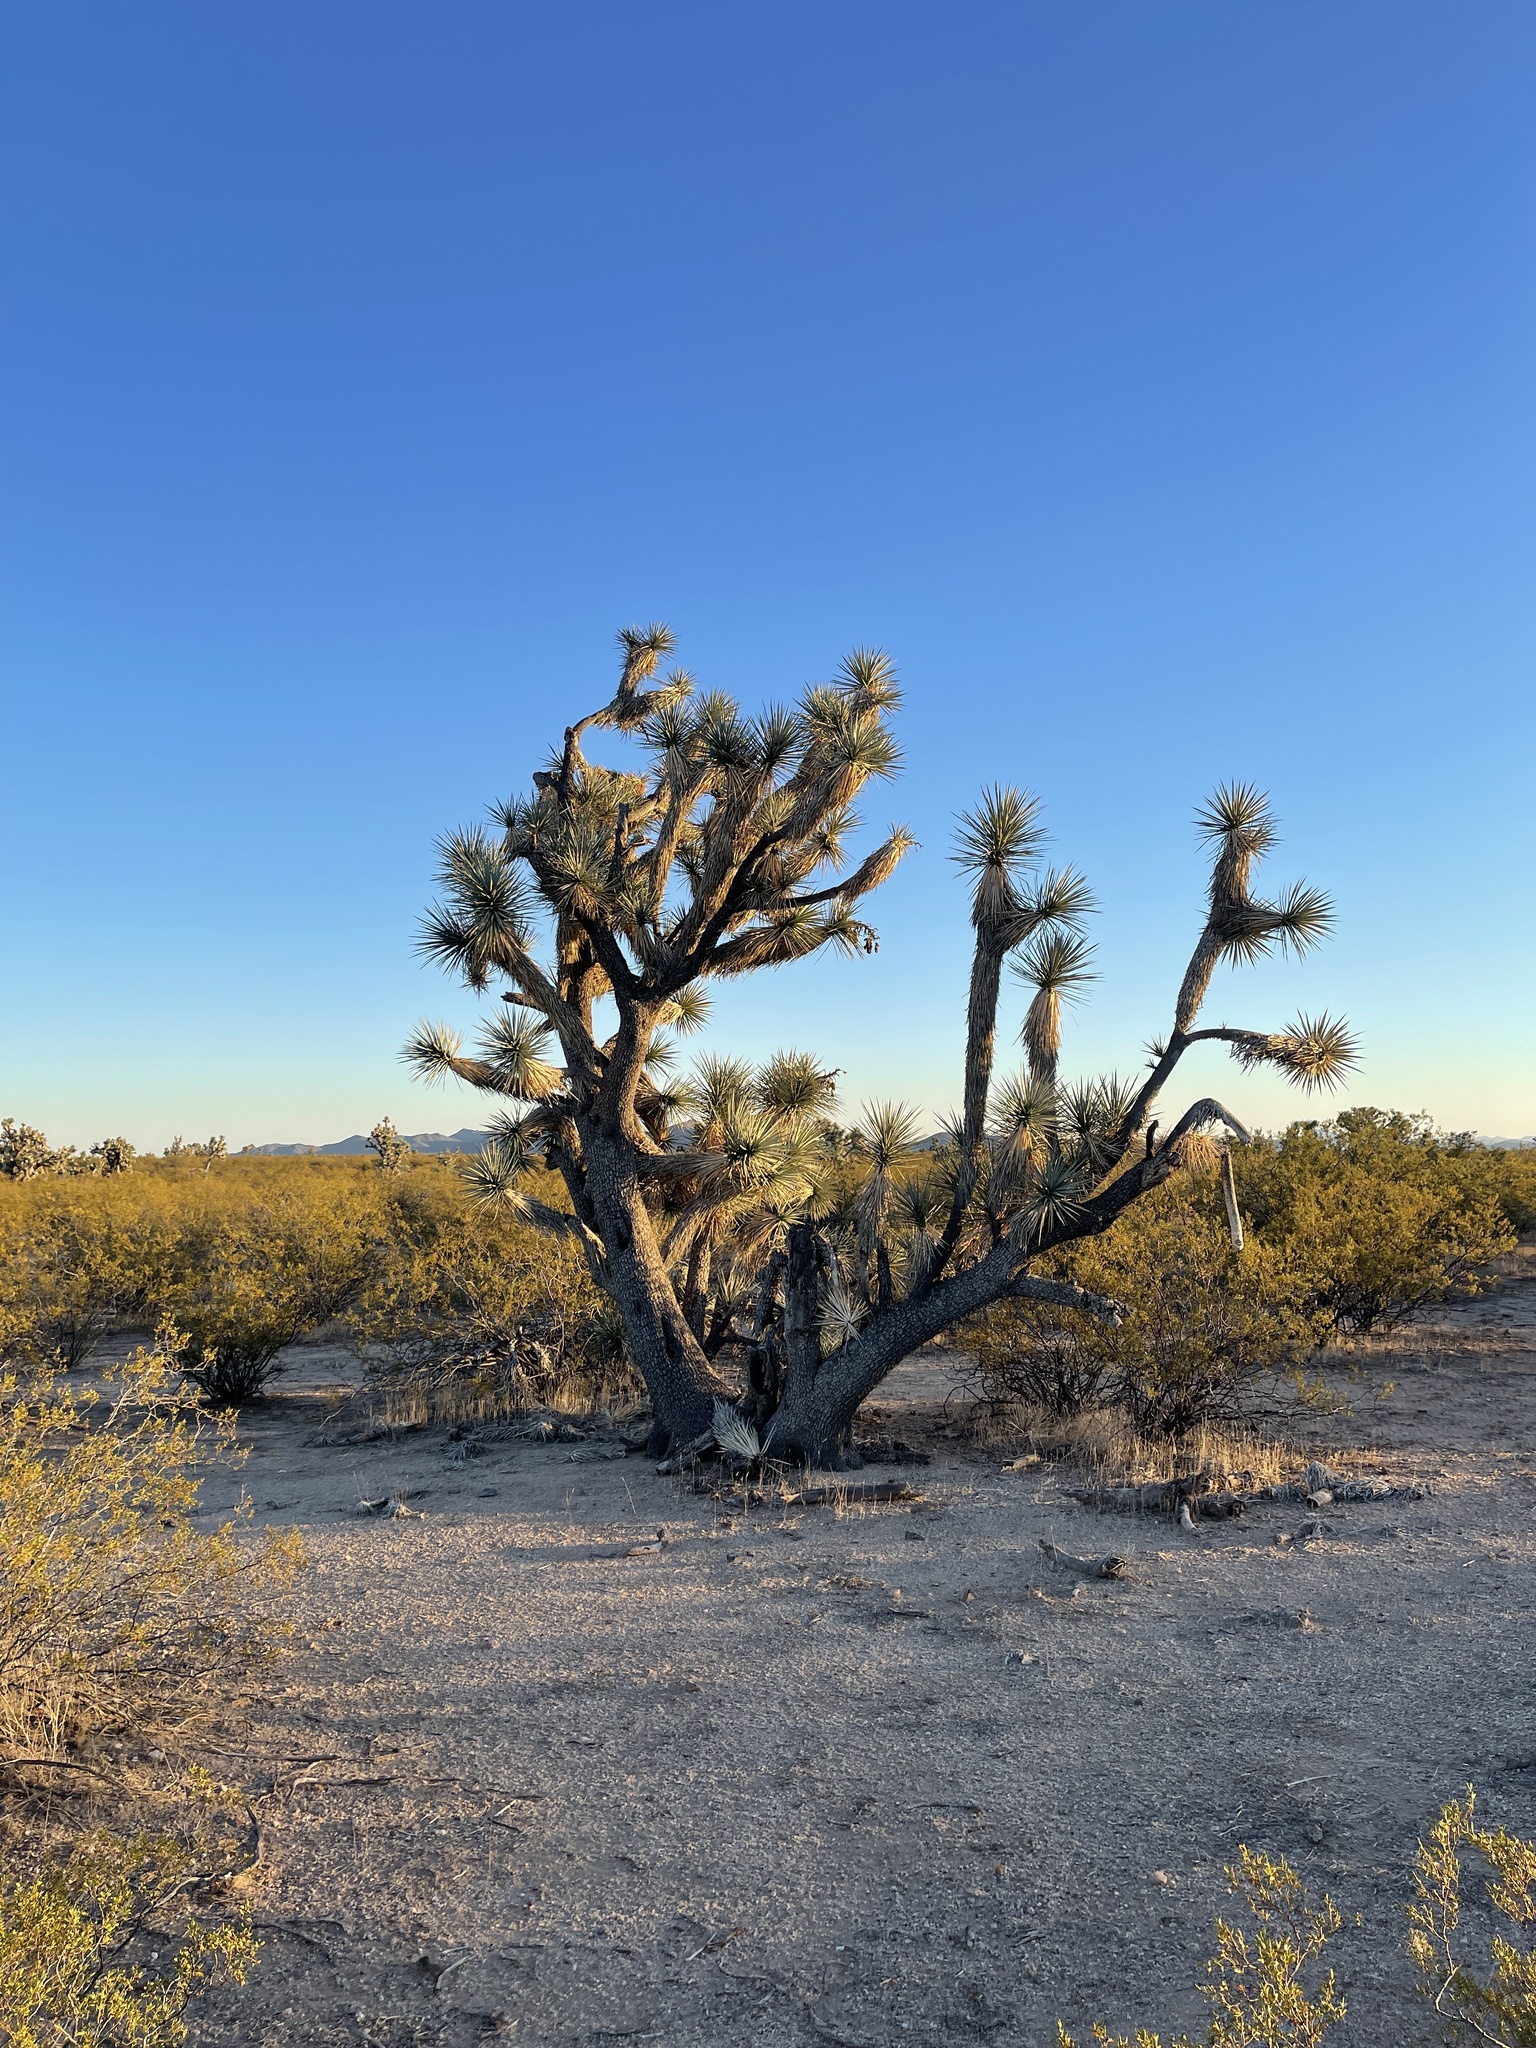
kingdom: Plantae
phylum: Tracheophyta
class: Liliopsida
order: Asparagales
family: Asparagaceae
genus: Yucca
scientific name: Yucca brevifolia
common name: Joshua tree
